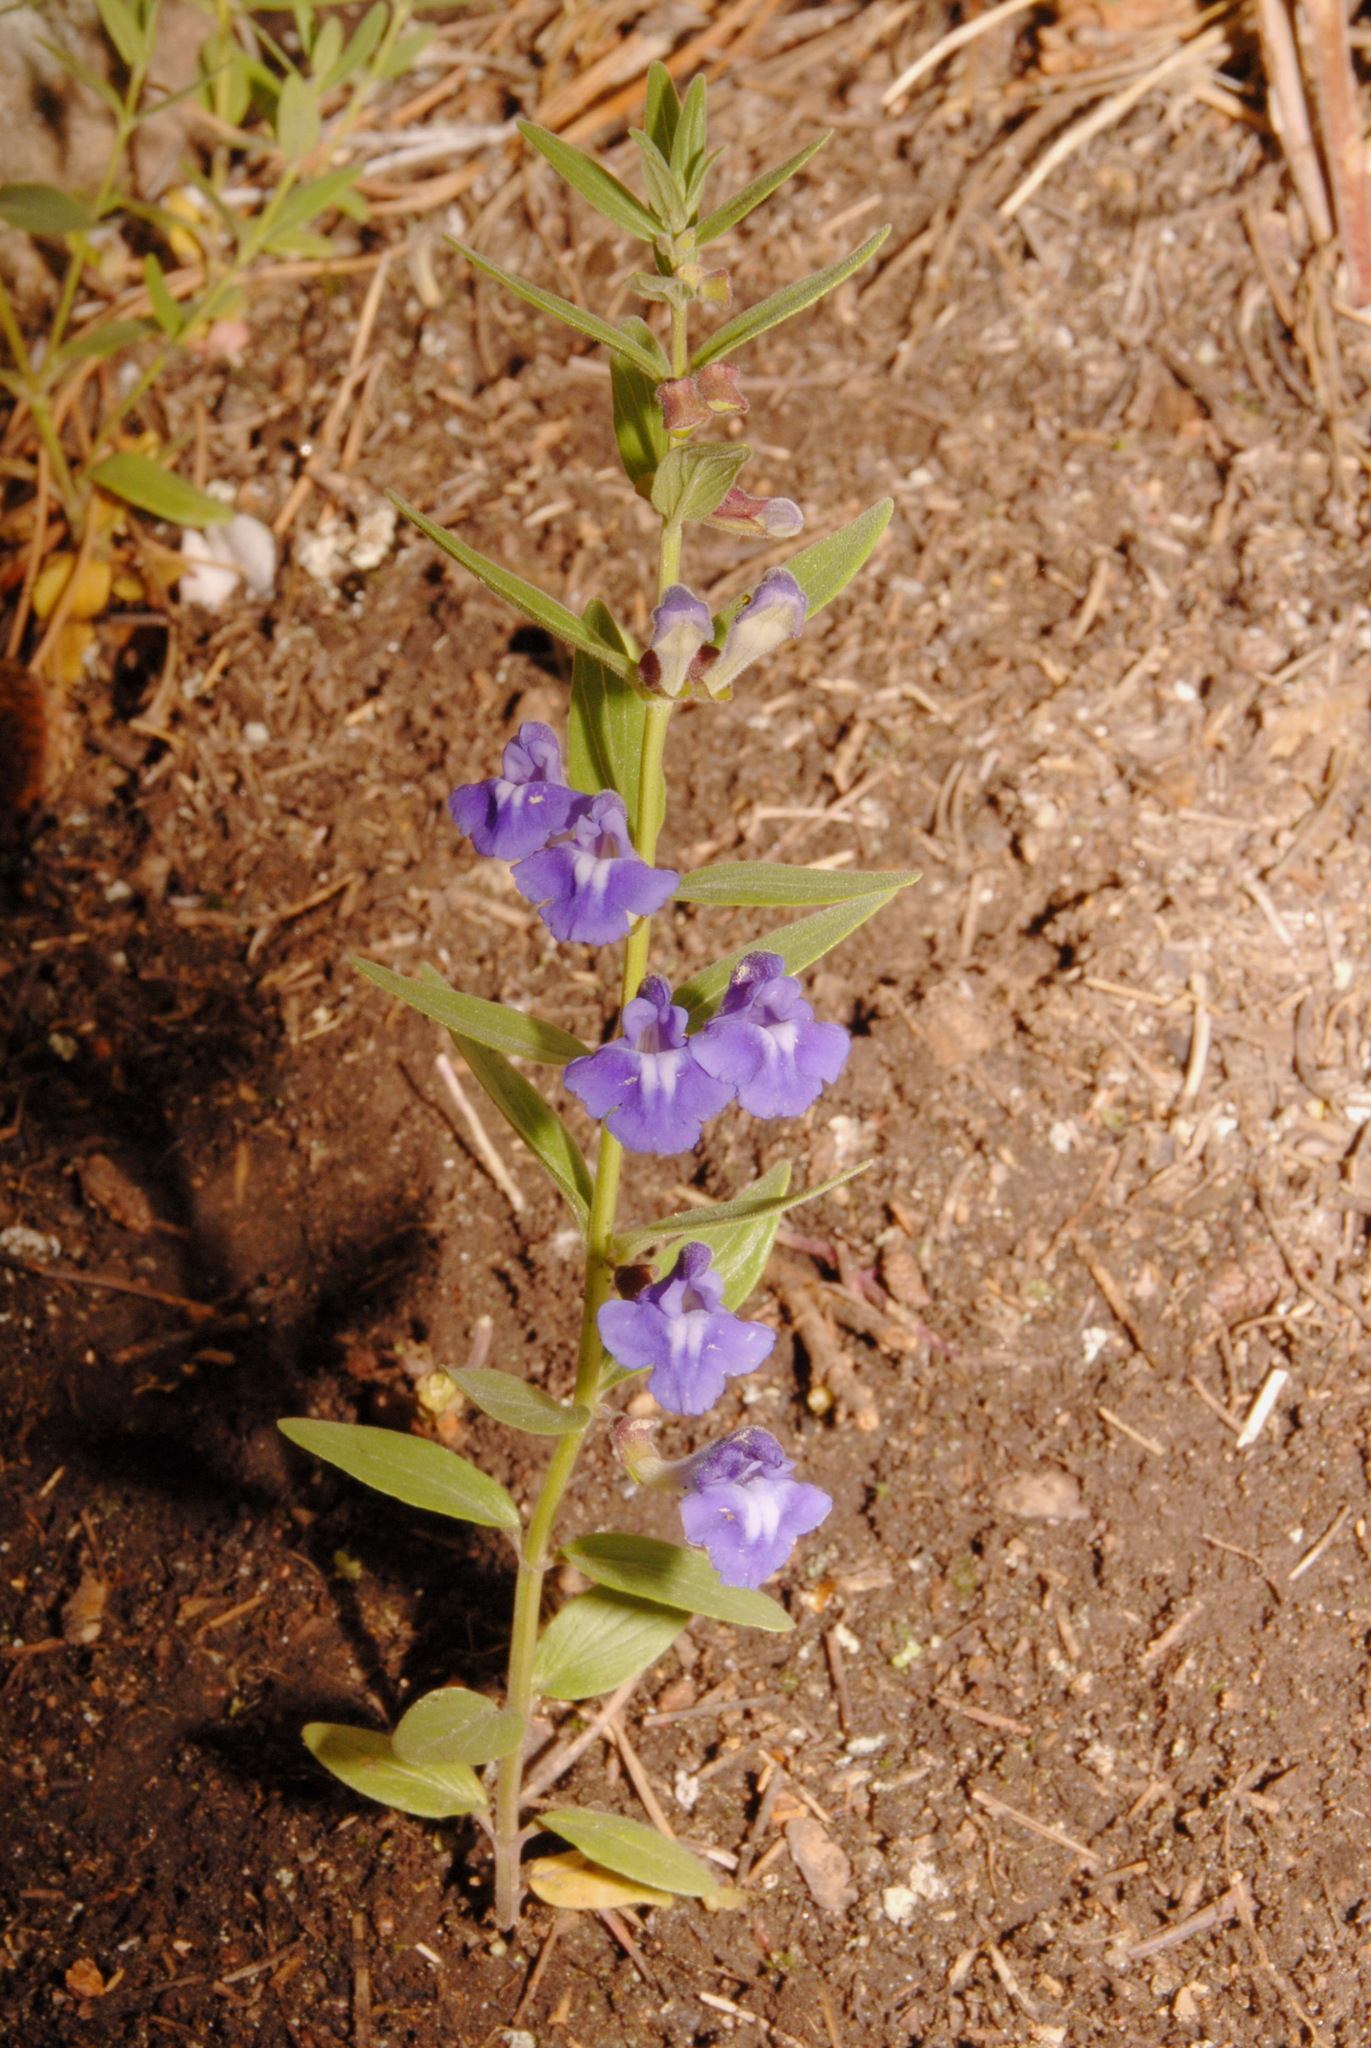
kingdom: Plantae
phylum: Tracheophyta
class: Magnoliopsida
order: Lamiales
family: Lamiaceae
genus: Scutellaria
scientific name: Scutellaria brittonii
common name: Britton's skullcap
